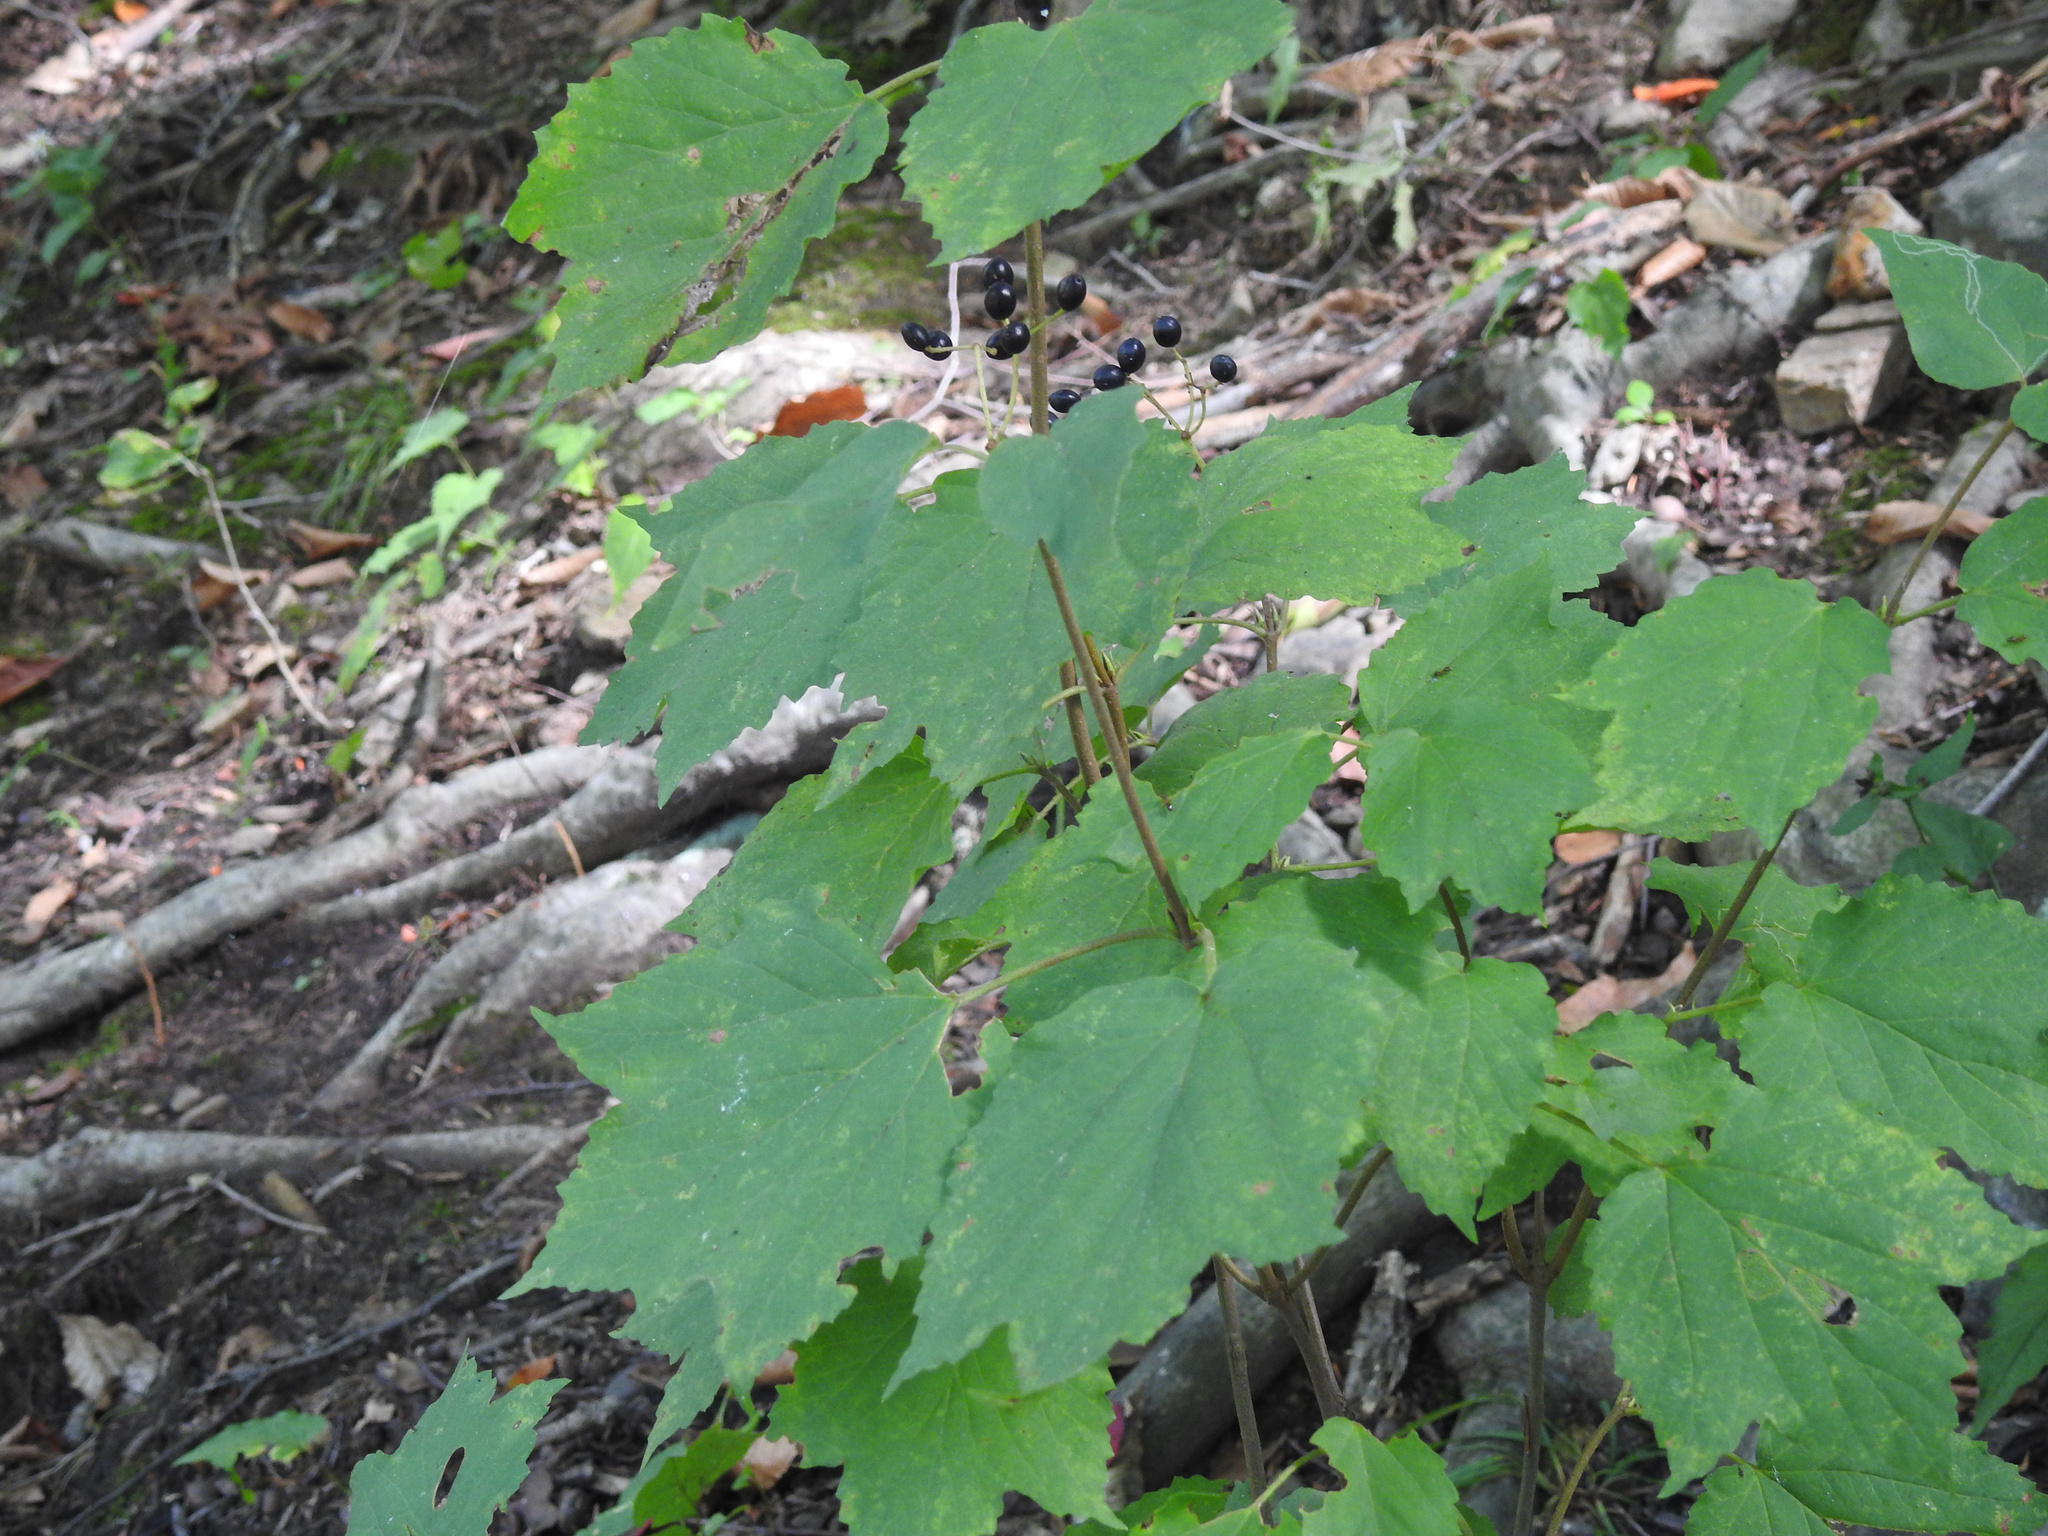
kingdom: Plantae
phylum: Tracheophyta
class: Magnoliopsida
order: Dipsacales
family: Viburnaceae
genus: Viburnum
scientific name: Viburnum acerifolium
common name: Dockmackie
